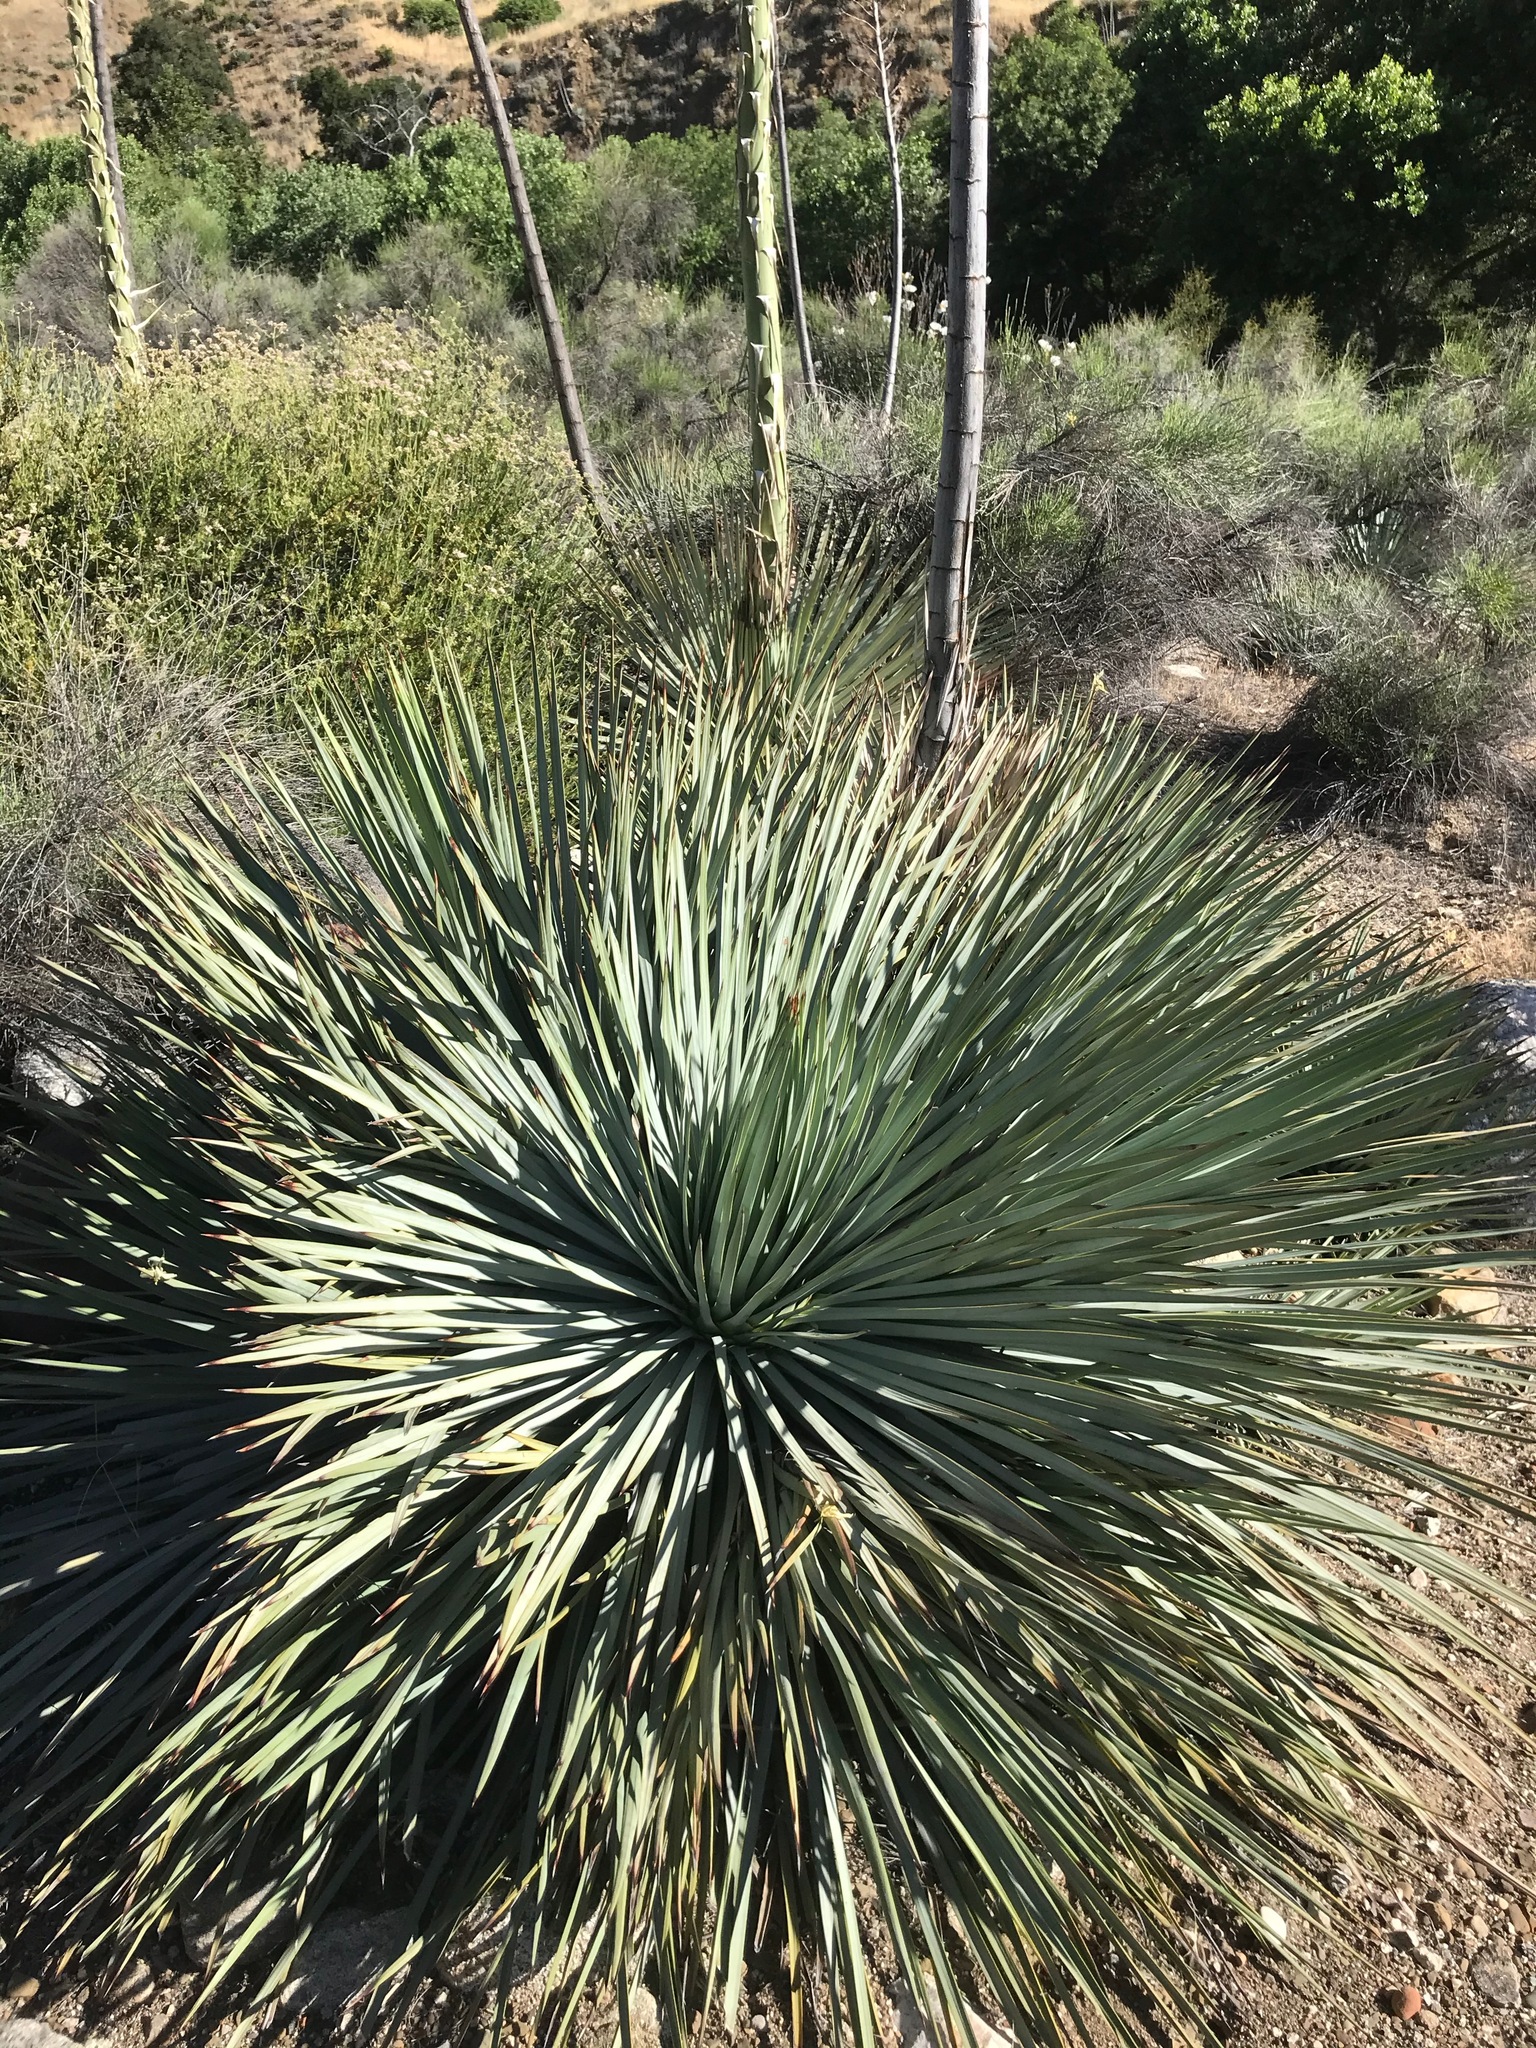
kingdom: Plantae
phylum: Tracheophyta
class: Liliopsida
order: Asparagales
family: Asparagaceae
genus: Hesperoyucca
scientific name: Hesperoyucca whipplei
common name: Our lord's-candle
